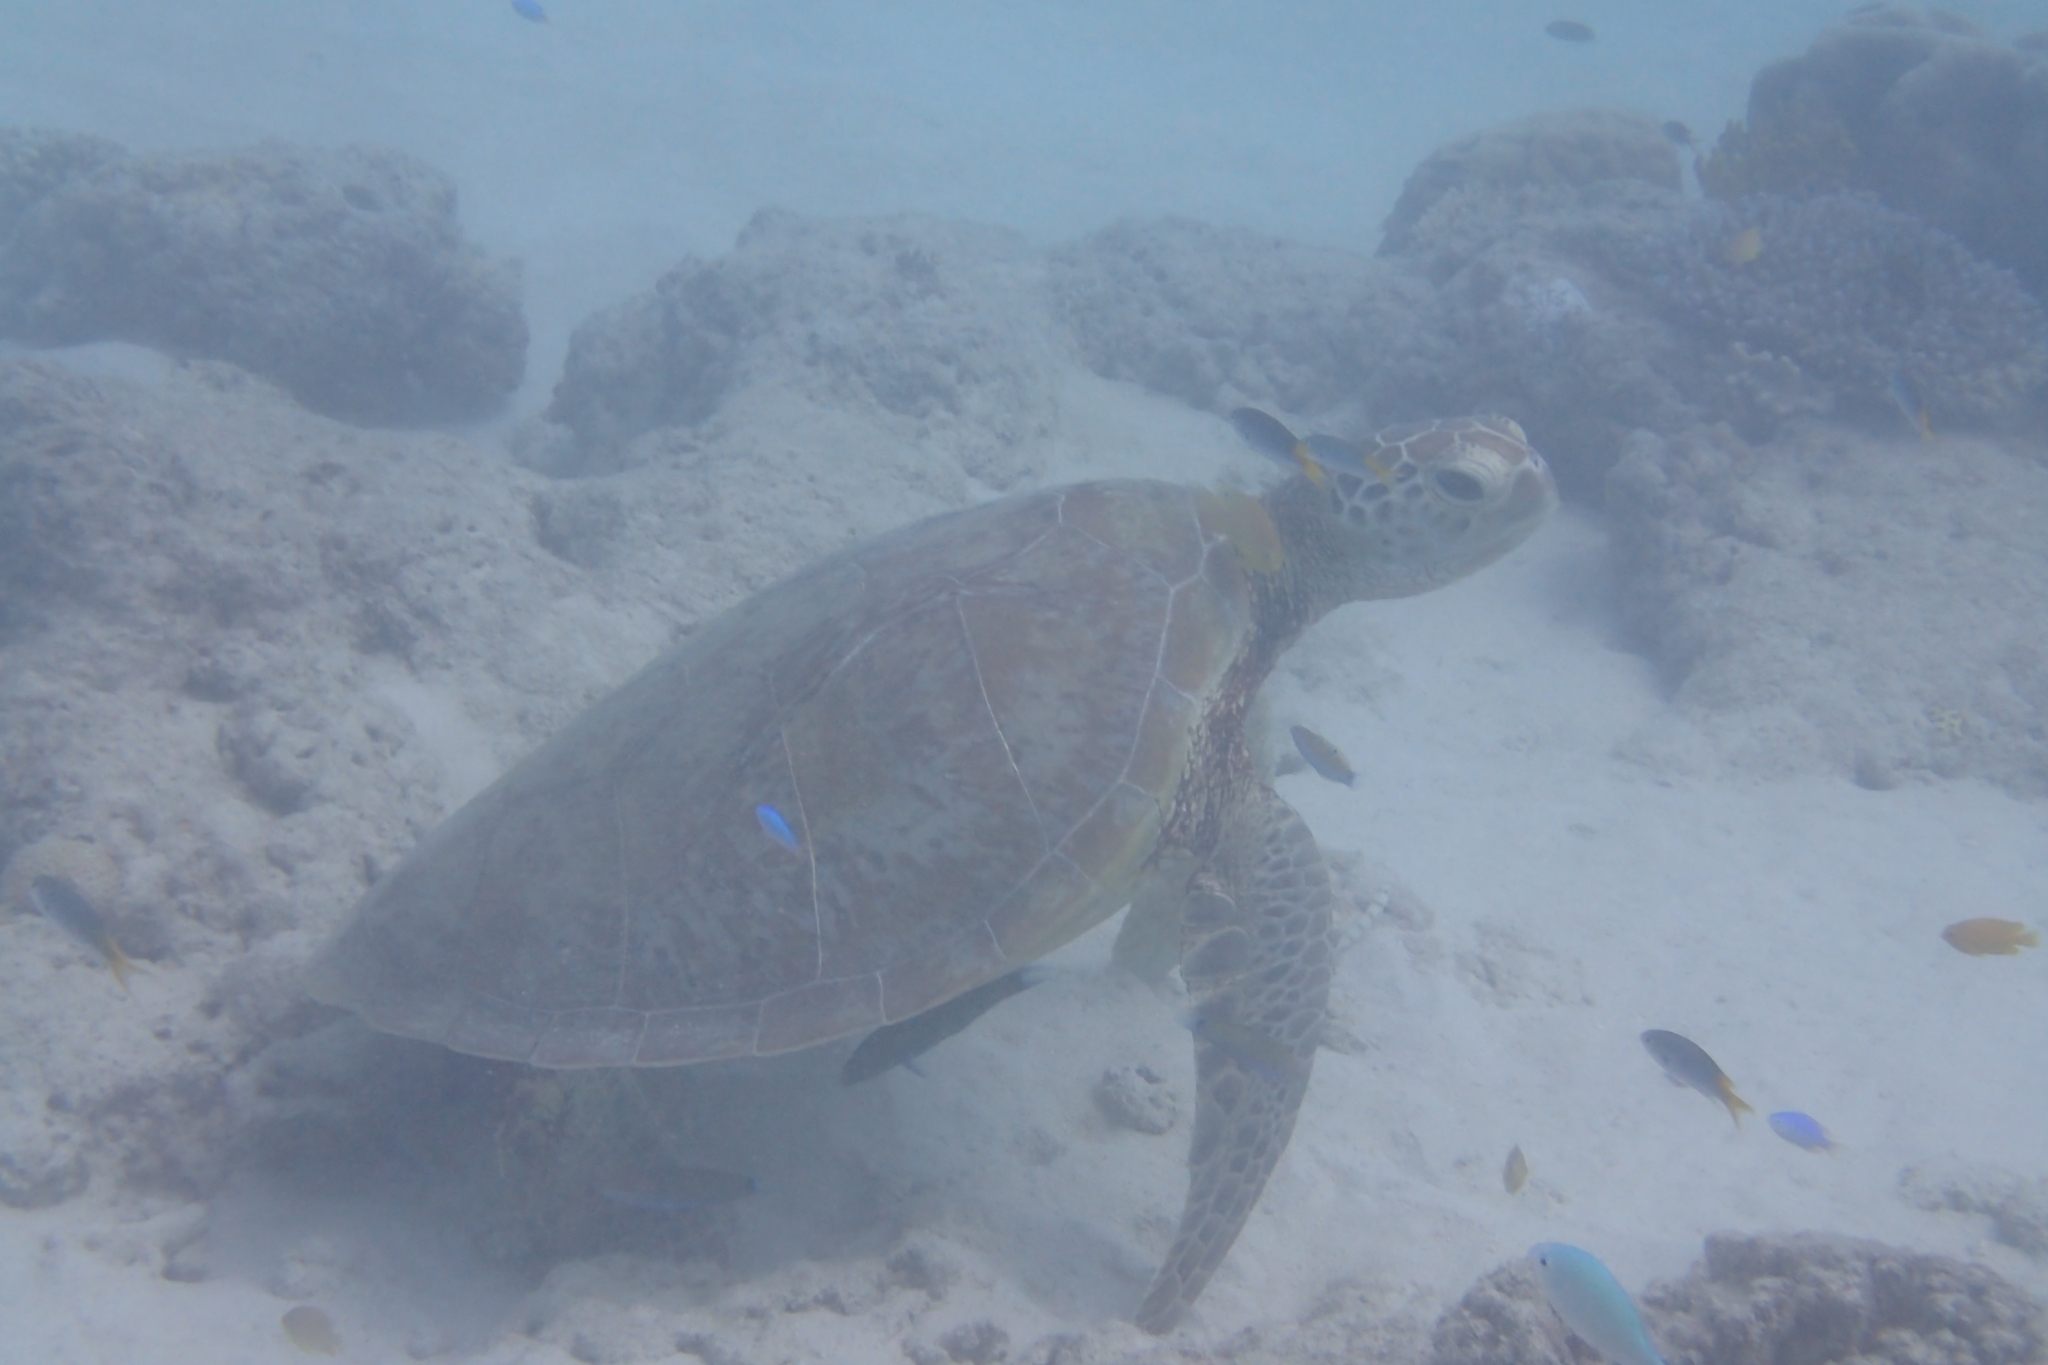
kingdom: Animalia
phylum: Chordata
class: Testudines
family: Cheloniidae
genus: Chelonia
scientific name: Chelonia mydas
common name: Green turtle
